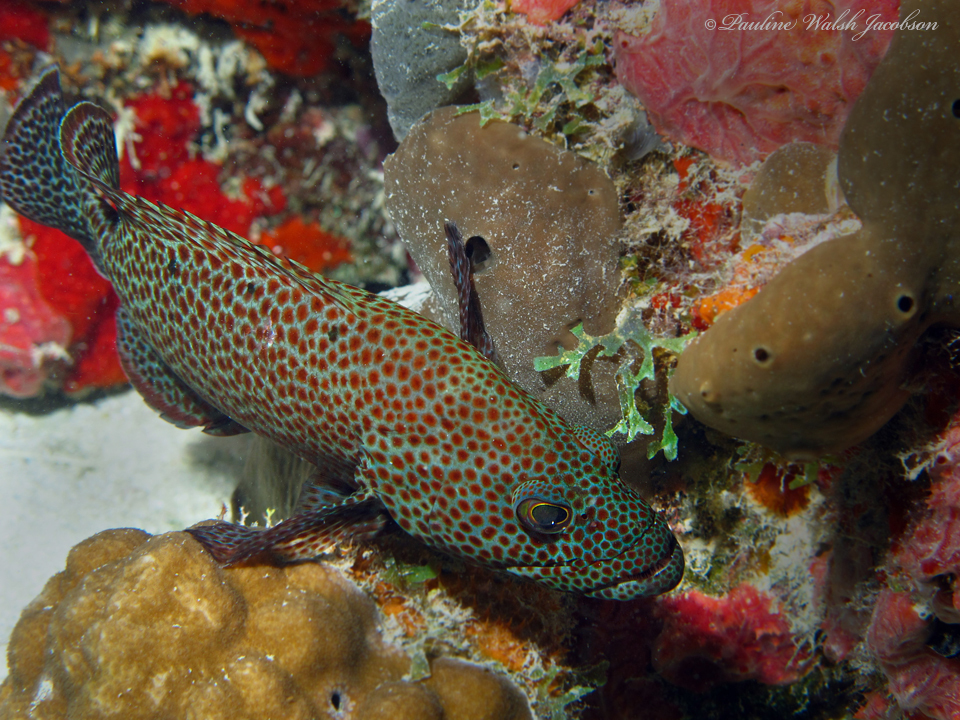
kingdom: Animalia
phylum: Chordata
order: Perciformes
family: Serranidae
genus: Cephalopholis
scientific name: Cephalopholis cruentata
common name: Graysby
